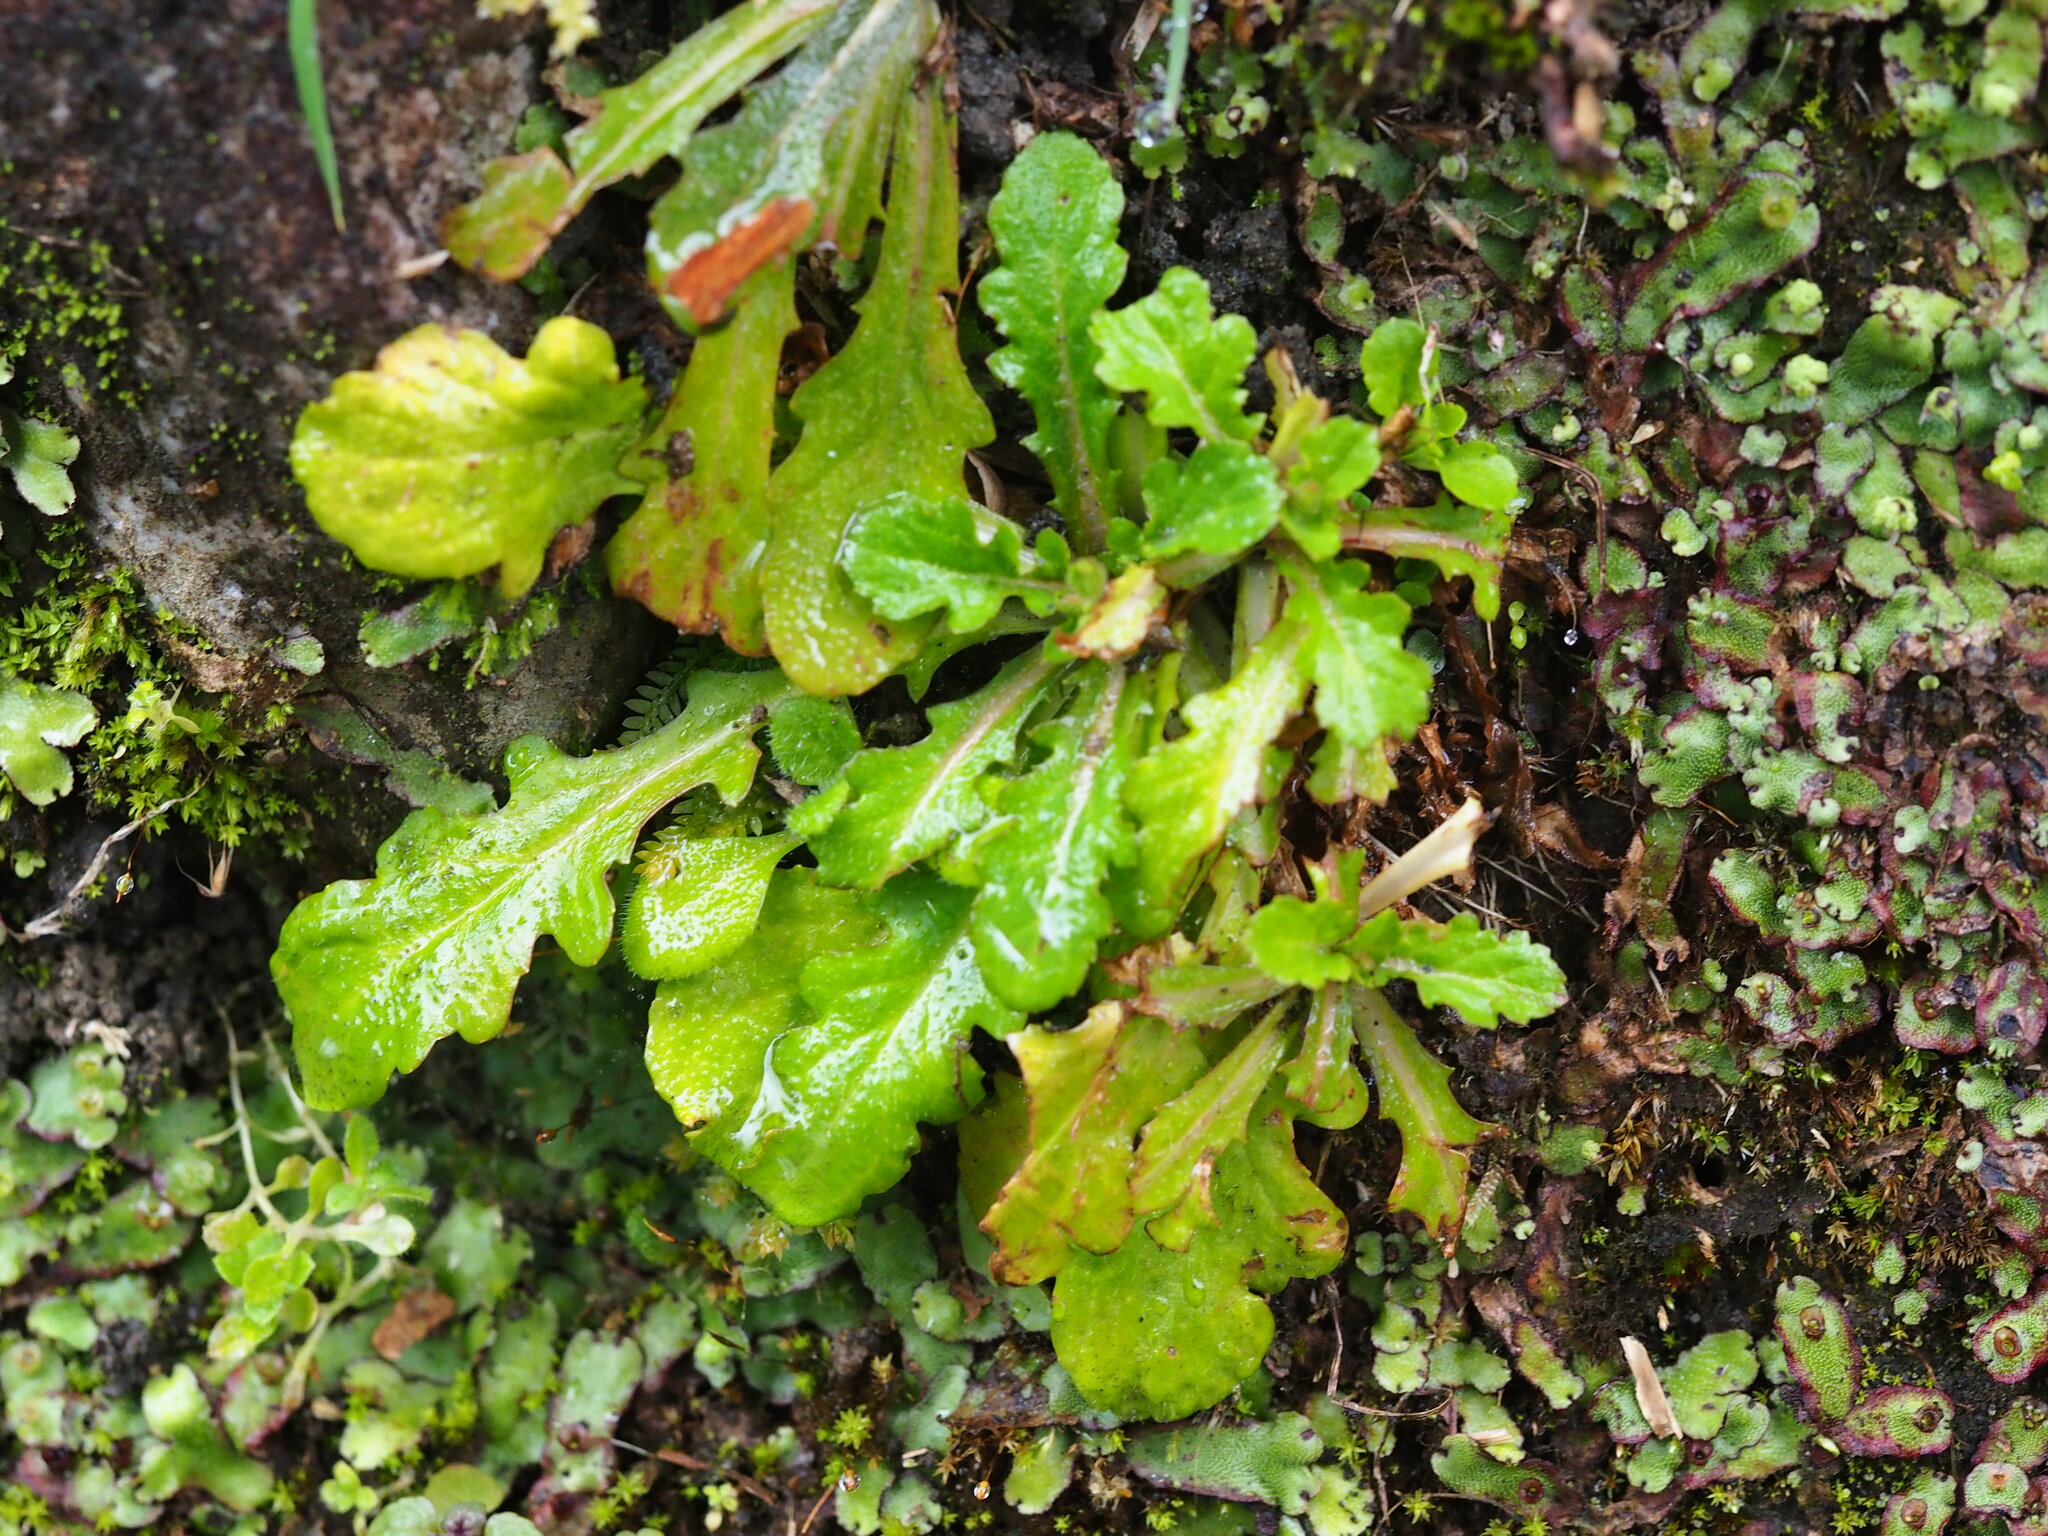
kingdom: Plantae
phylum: Tracheophyta
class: Magnoliopsida
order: Lamiales
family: Mazaceae
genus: Mazus
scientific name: Mazus fauriei
